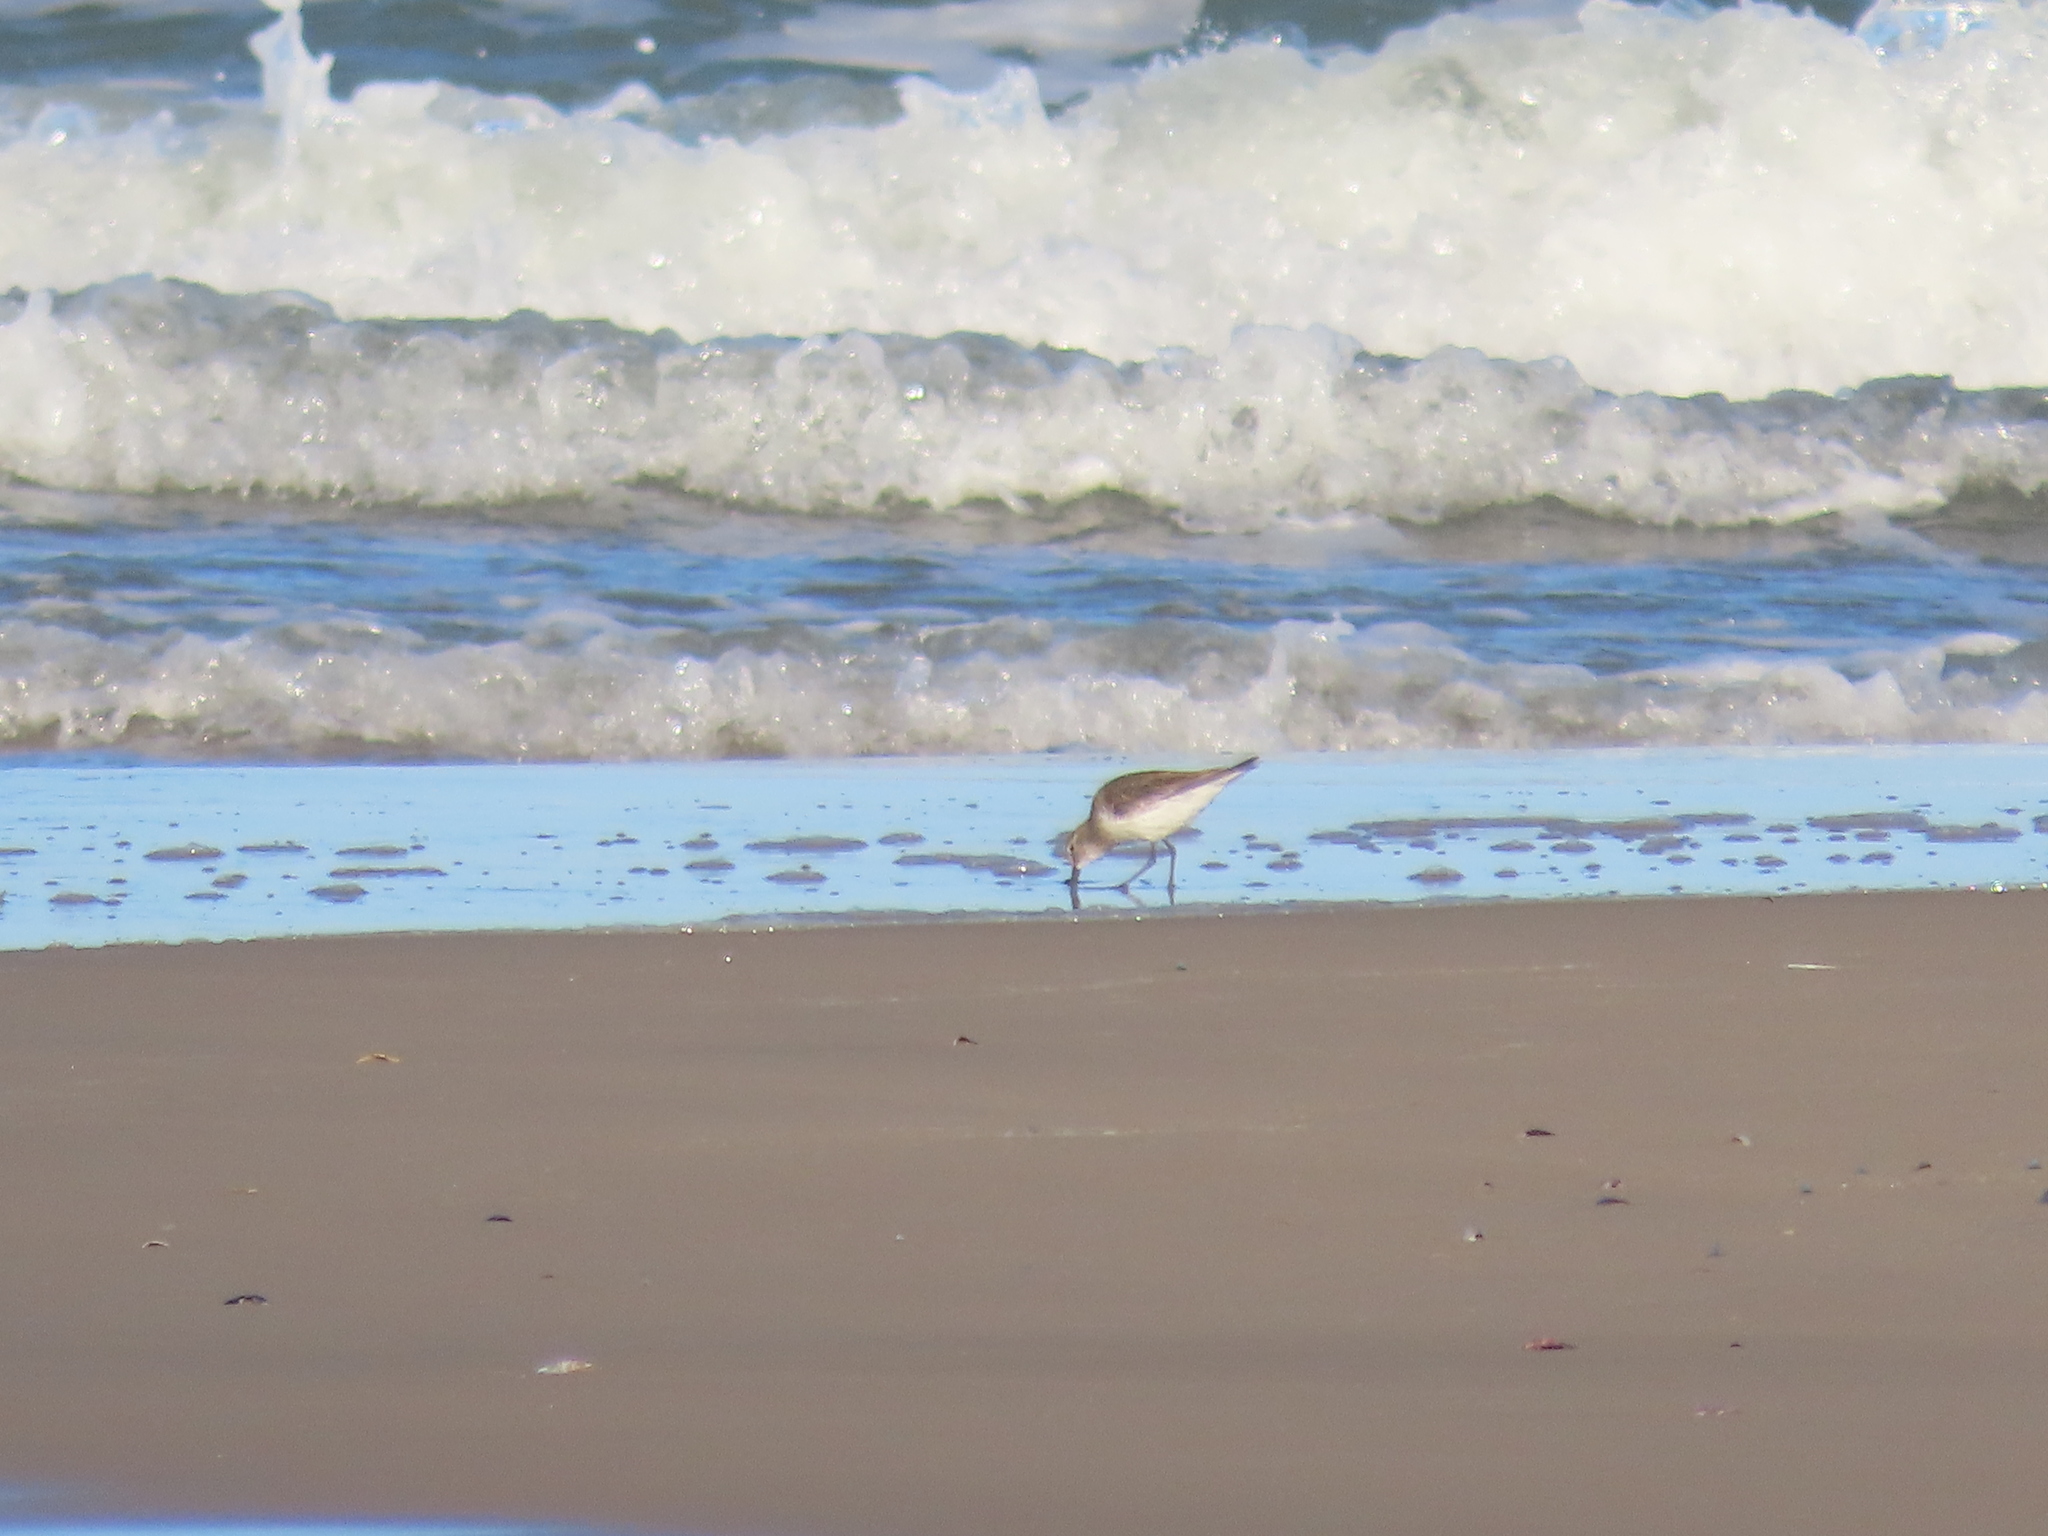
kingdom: Animalia
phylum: Chordata
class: Aves
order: Charadriiformes
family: Scolopacidae
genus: Calidris
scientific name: Calidris fuscicollis
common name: White-rumped sandpiper
